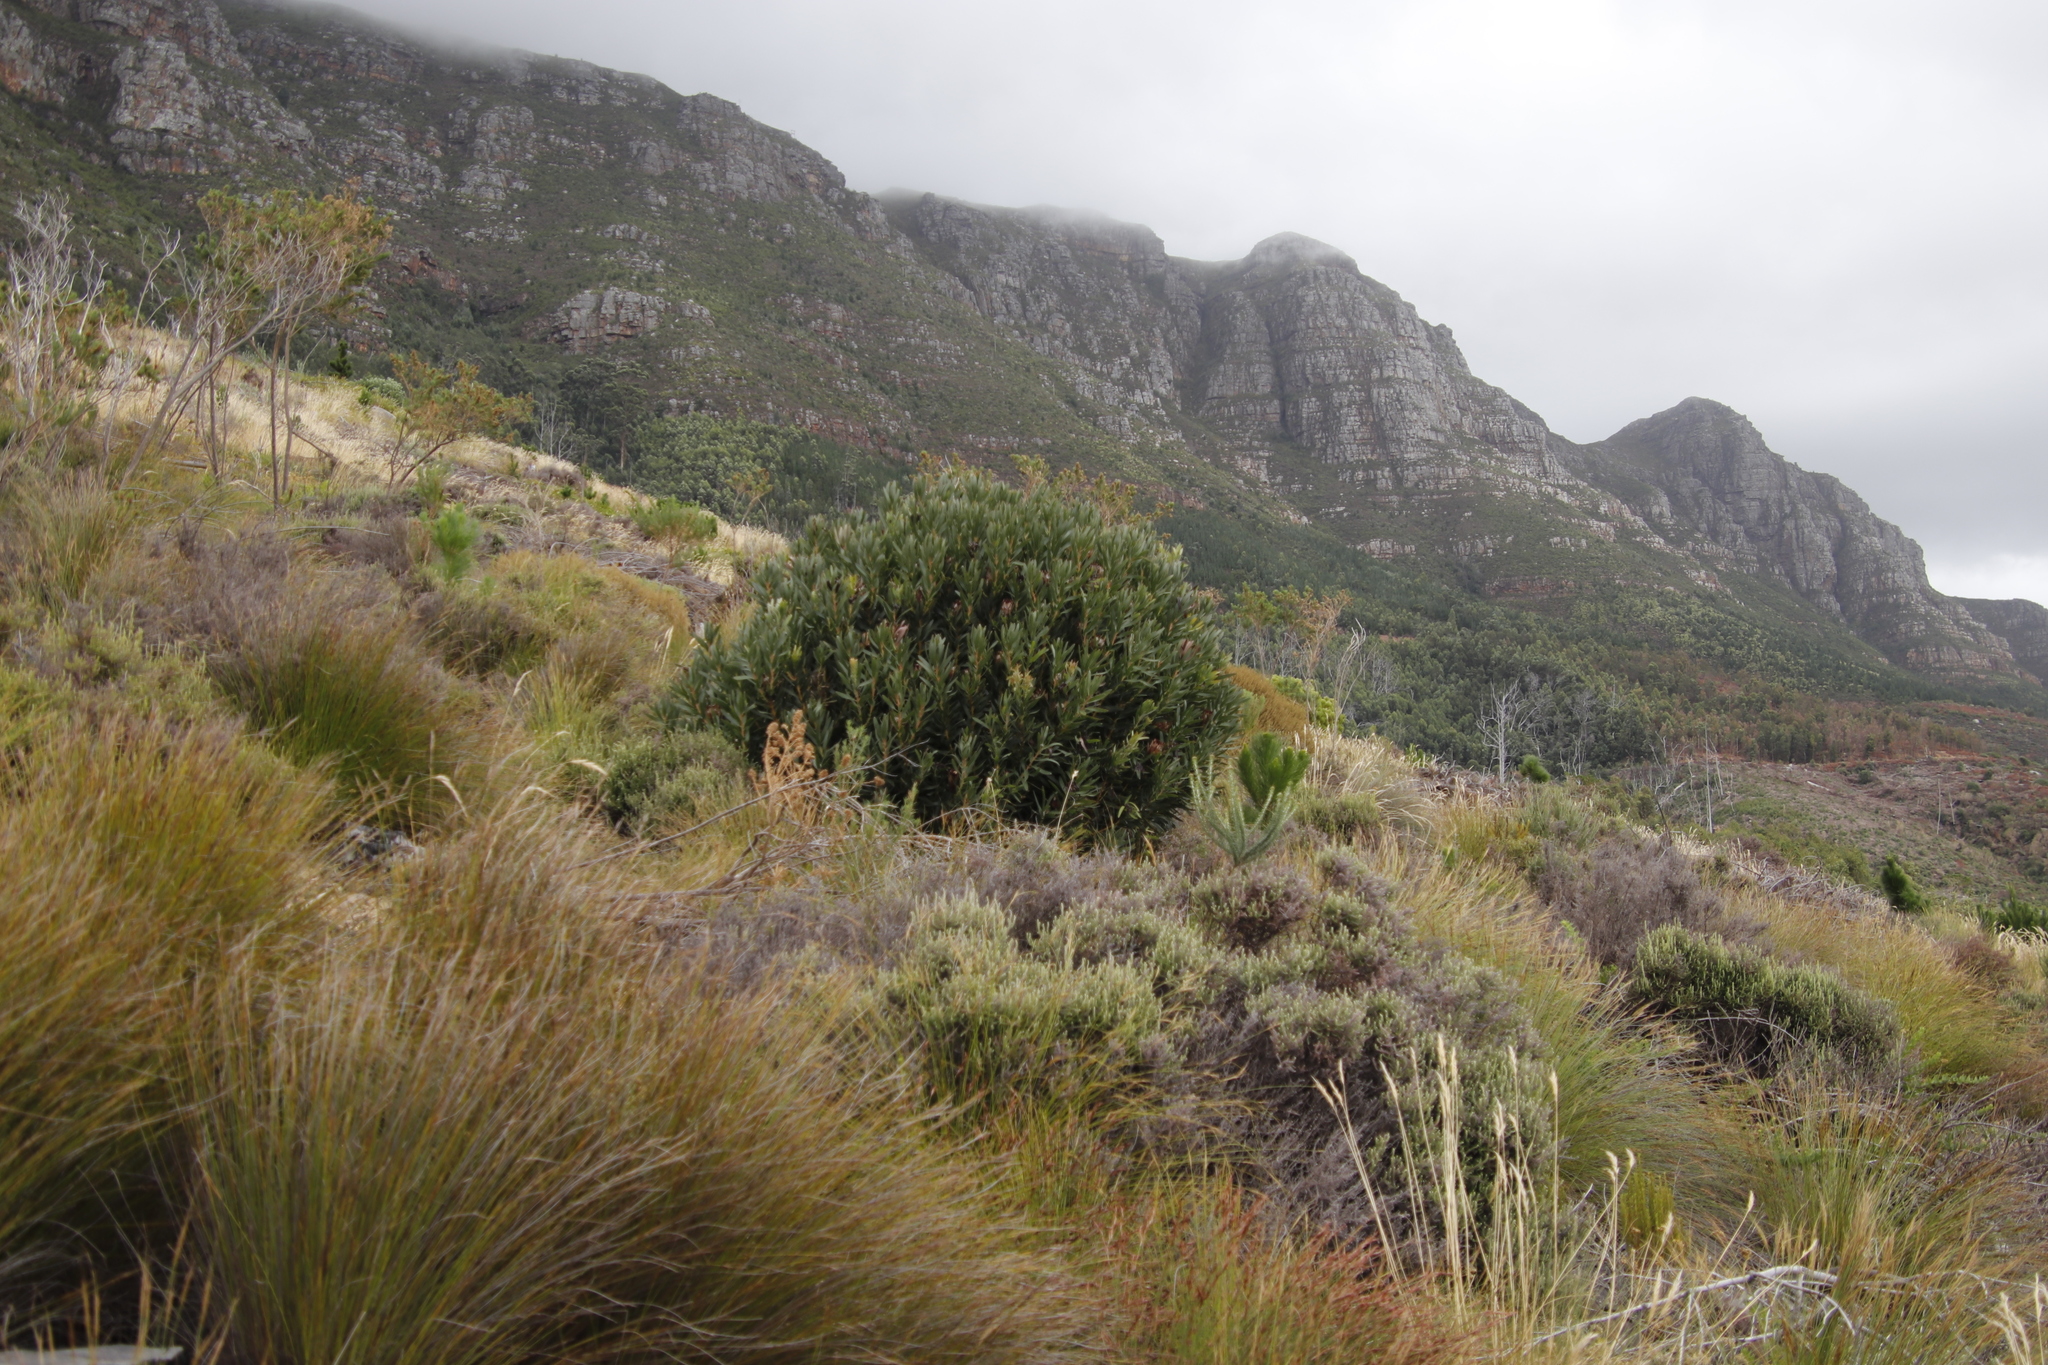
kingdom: Plantae
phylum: Tracheophyta
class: Magnoliopsida
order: Proteales
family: Proteaceae
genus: Protea
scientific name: Protea lepidocarpodendron
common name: Black-bearded protea
